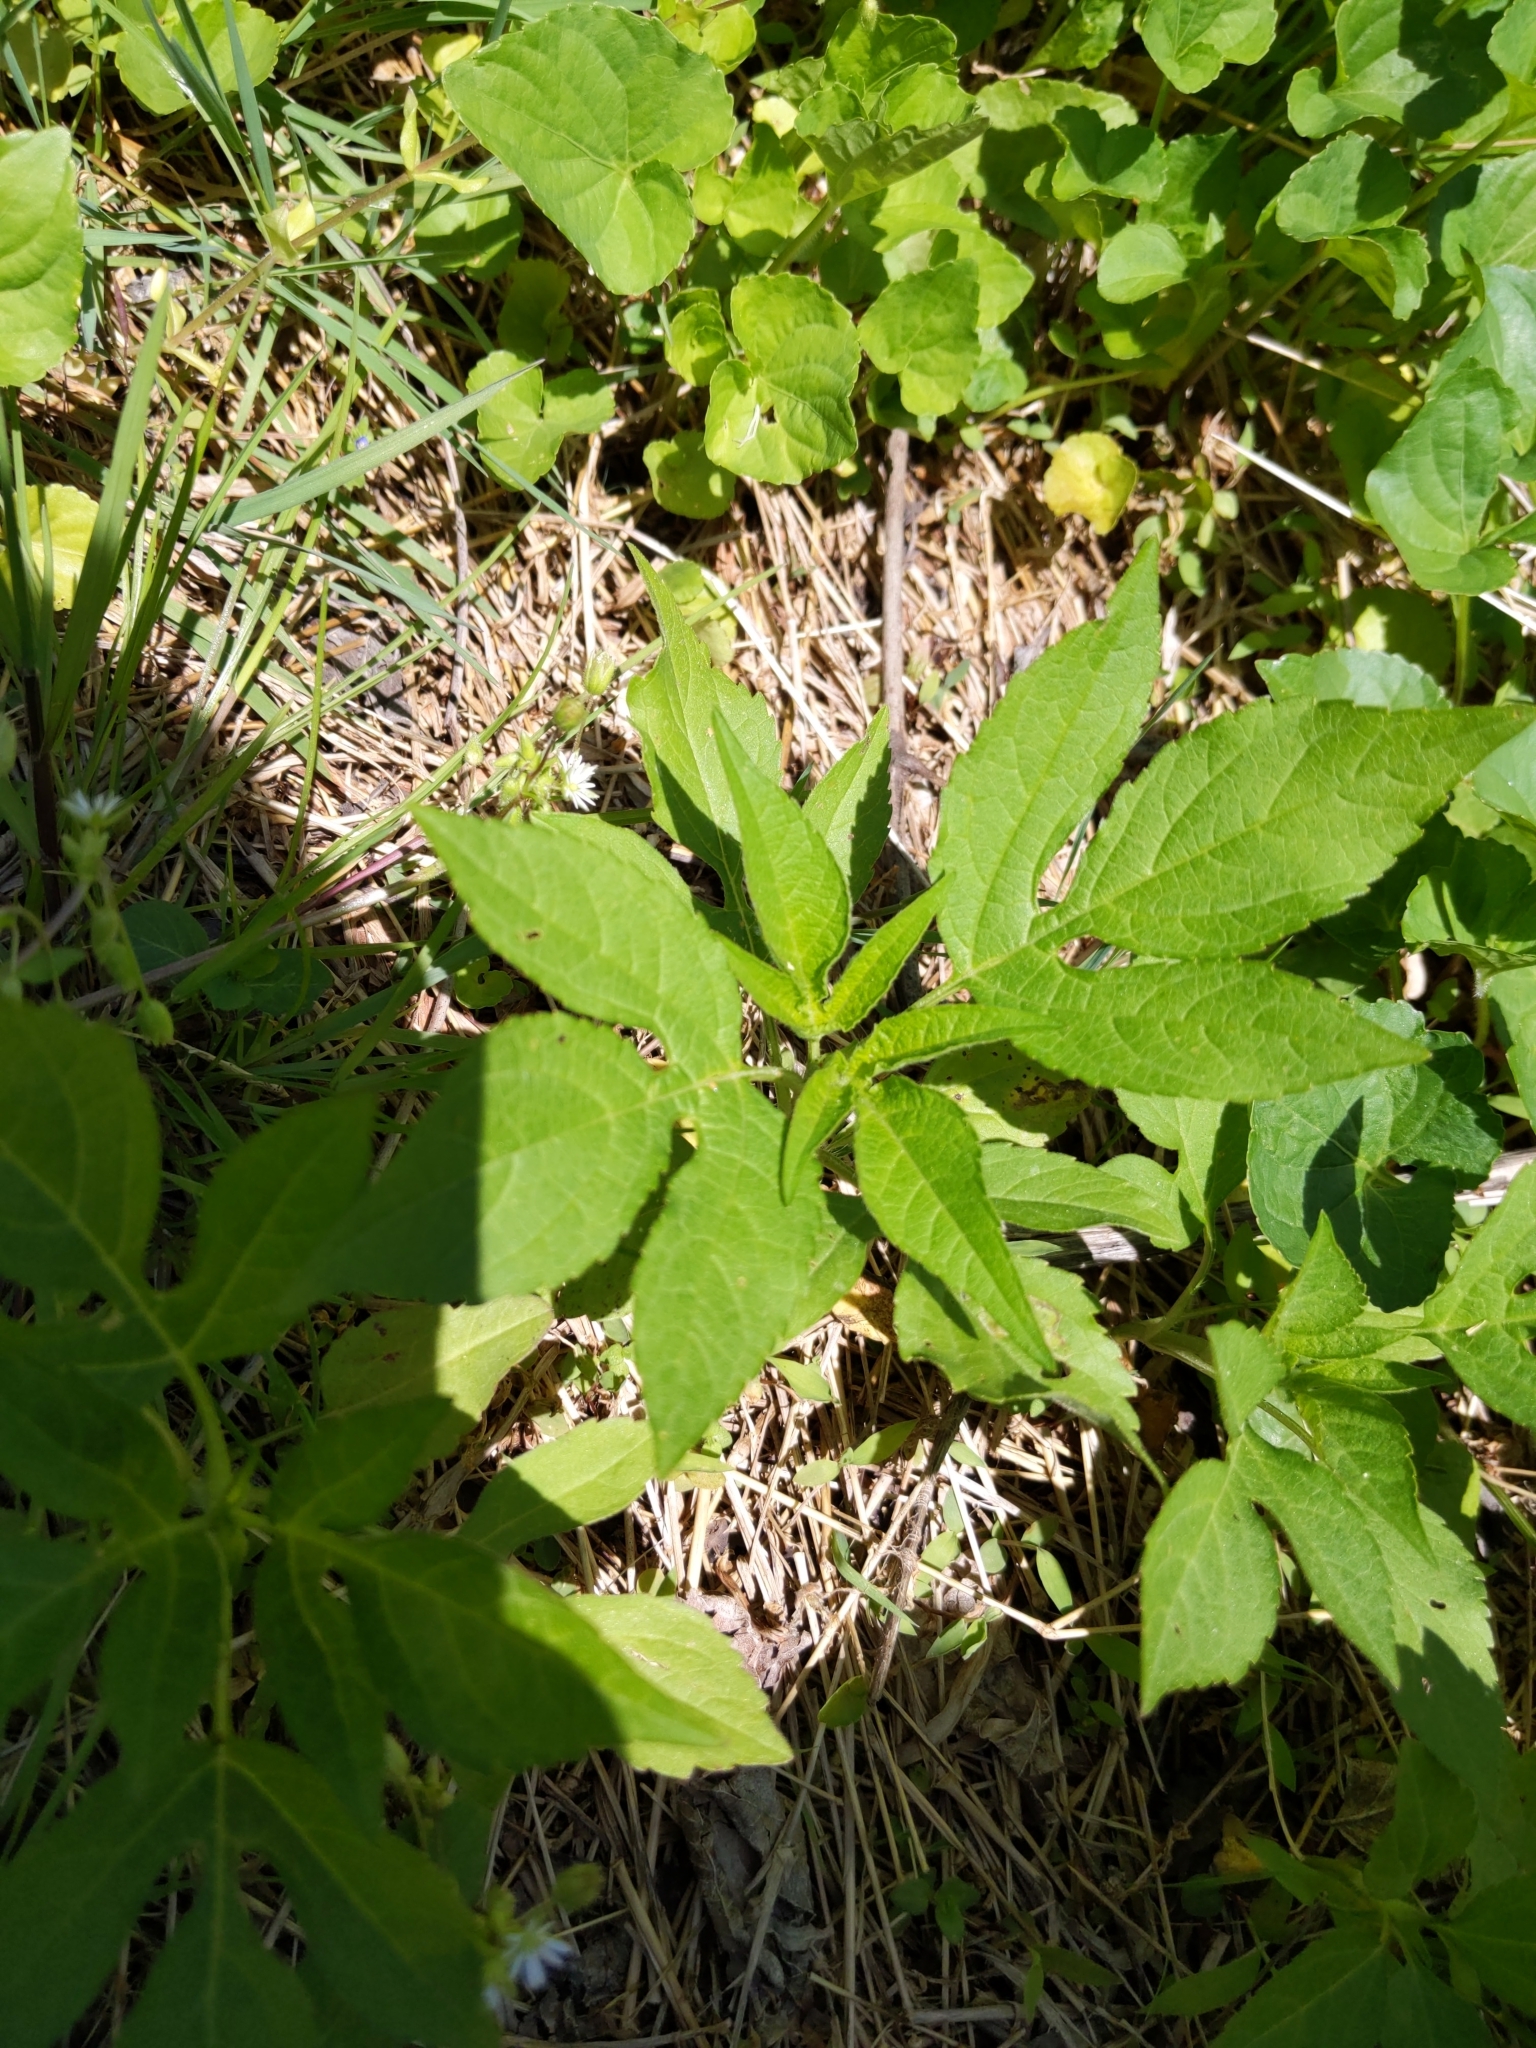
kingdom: Plantae
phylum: Tracheophyta
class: Magnoliopsida
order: Asterales
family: Asteraceae
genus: Ambrosia
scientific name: Ambrosia trifida
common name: Giant ragweed
